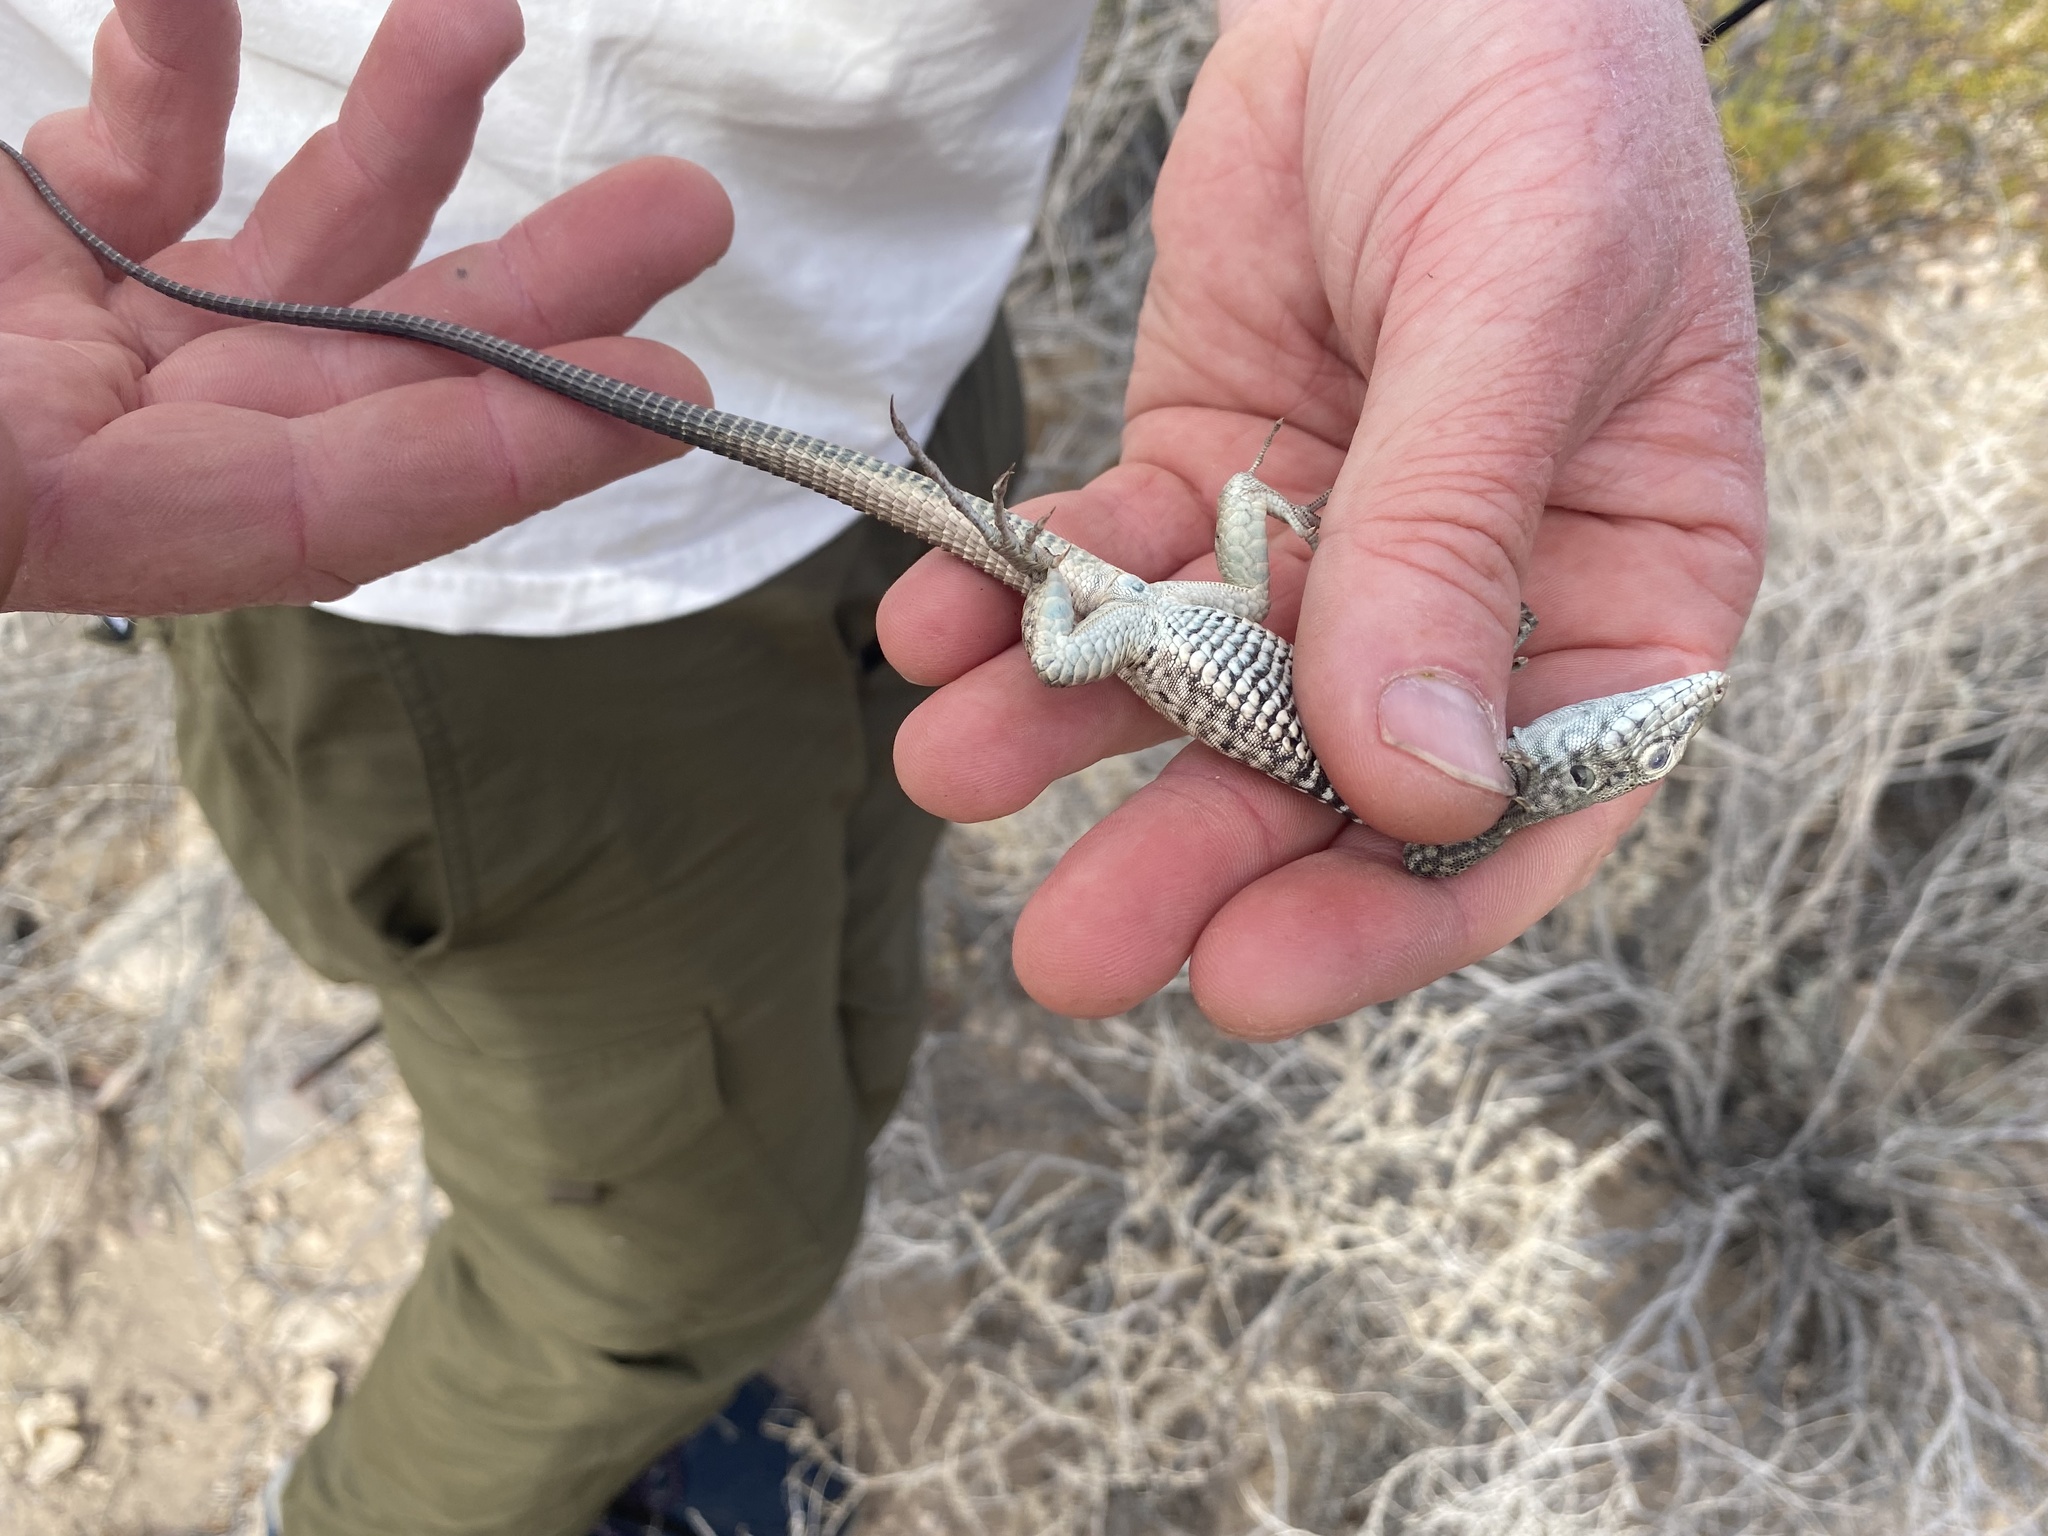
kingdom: Animalia
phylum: Chordata
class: Squamata
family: Teiidae
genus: Aspidoscelis
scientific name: Aspidoscelis tigris
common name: Tiger whiptail
